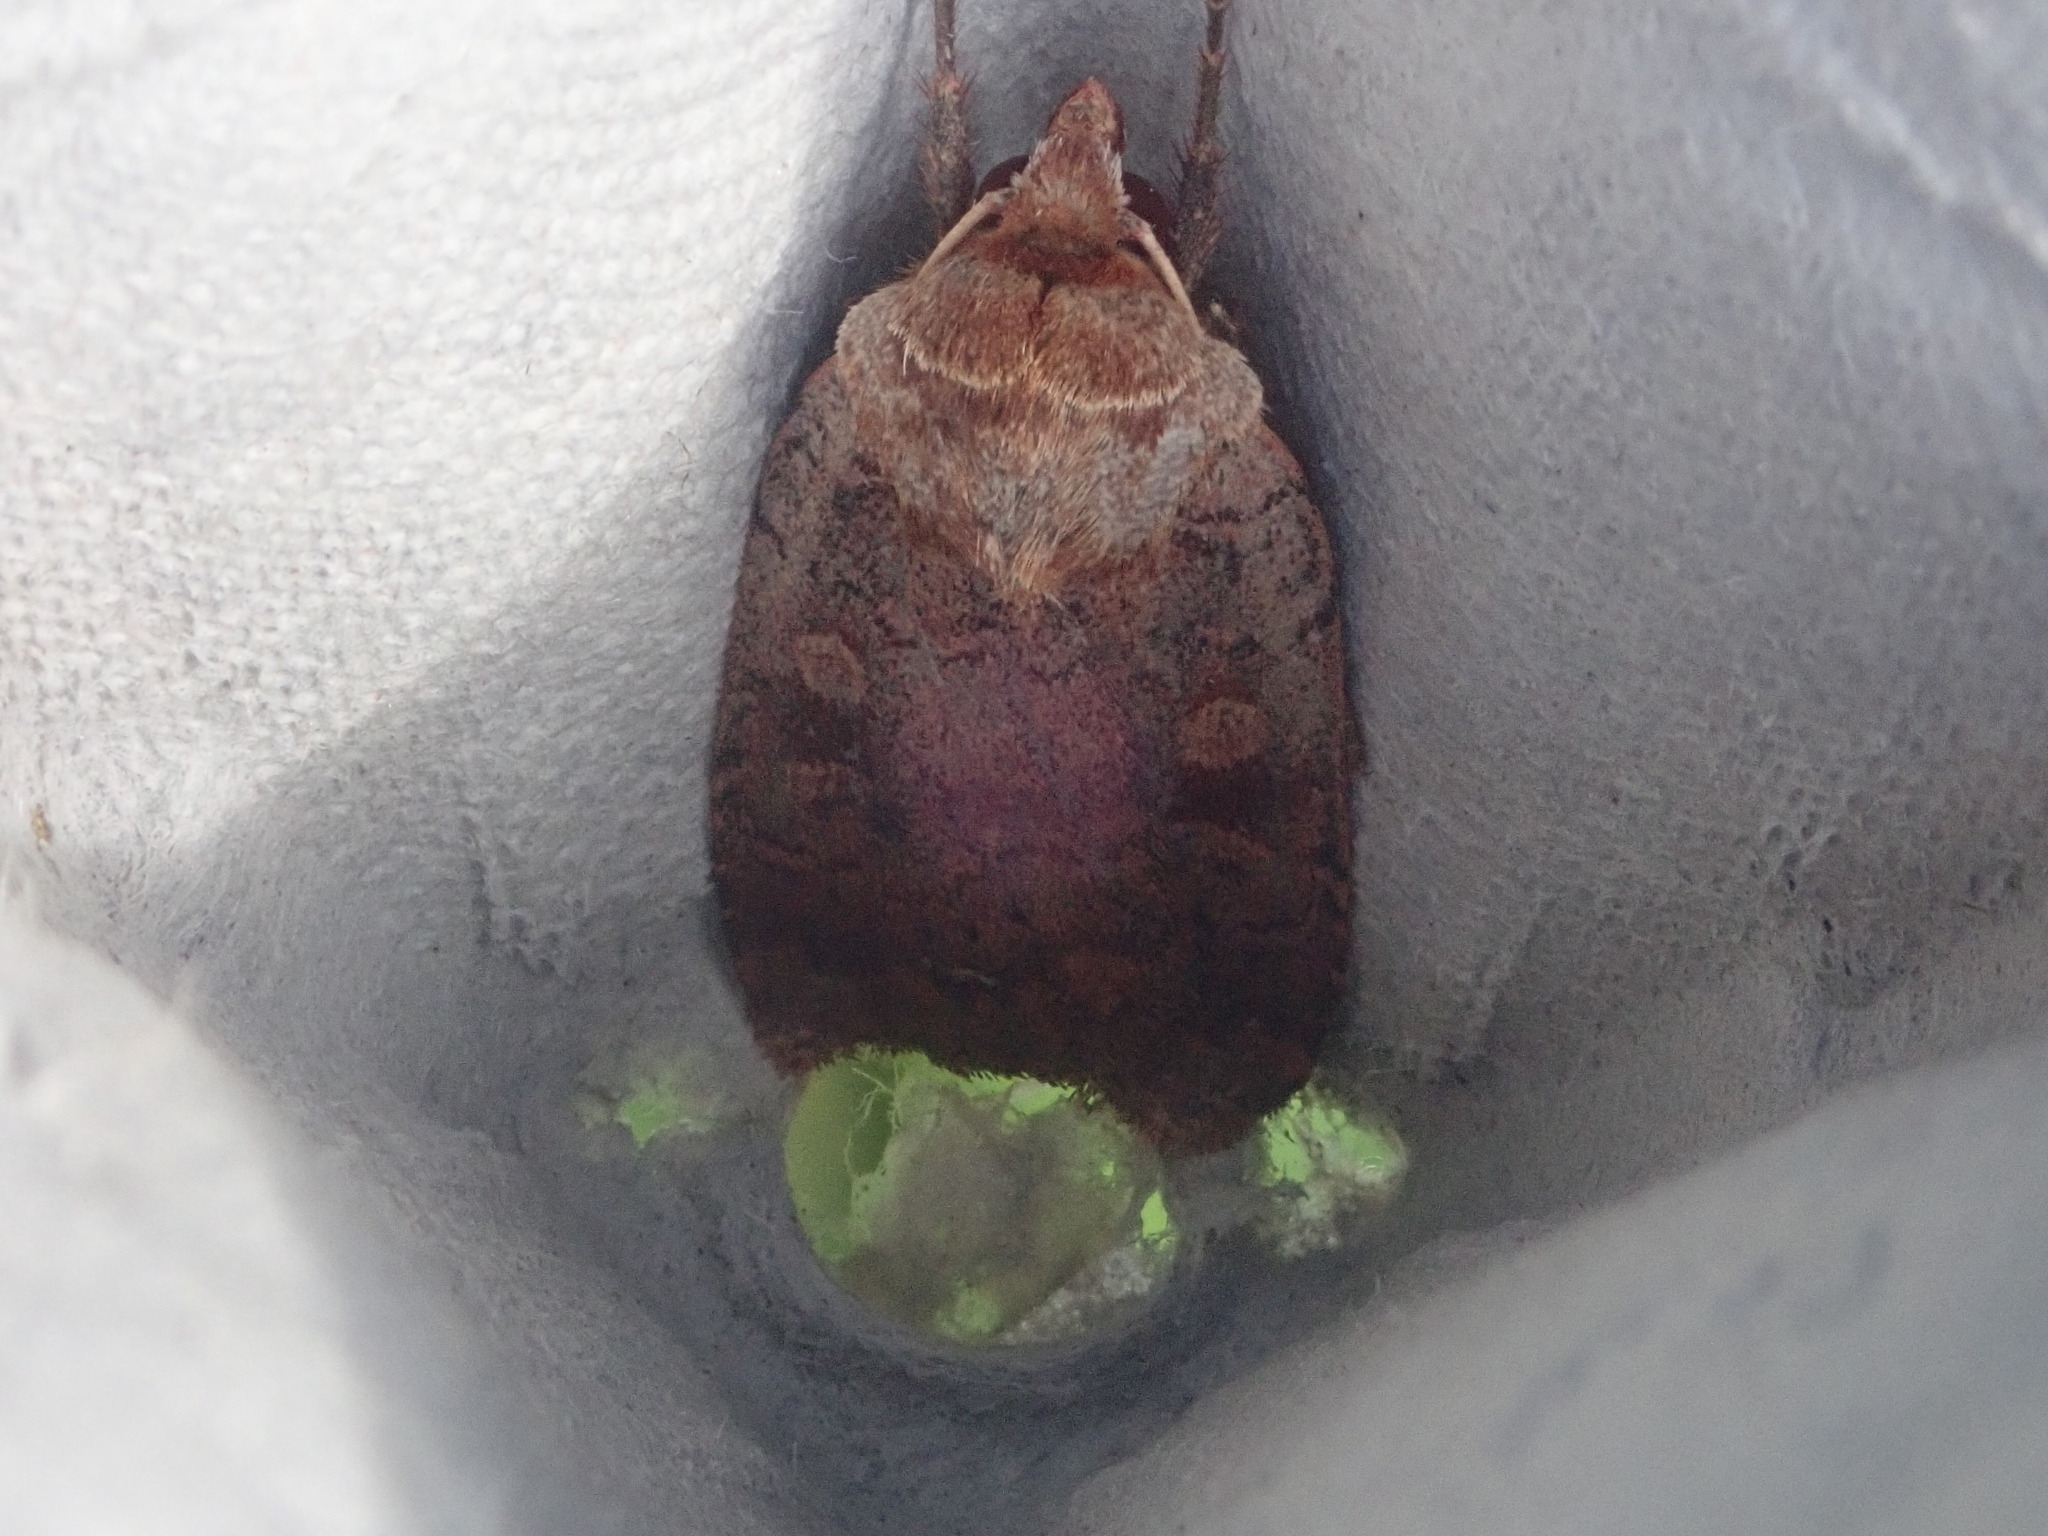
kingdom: Animalia
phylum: Arthropoda
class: Insecta
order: Lepidoptera
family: Noctuidae
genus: Lycophotia
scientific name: Lycophotia phyllophora
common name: Lycophotia moth
